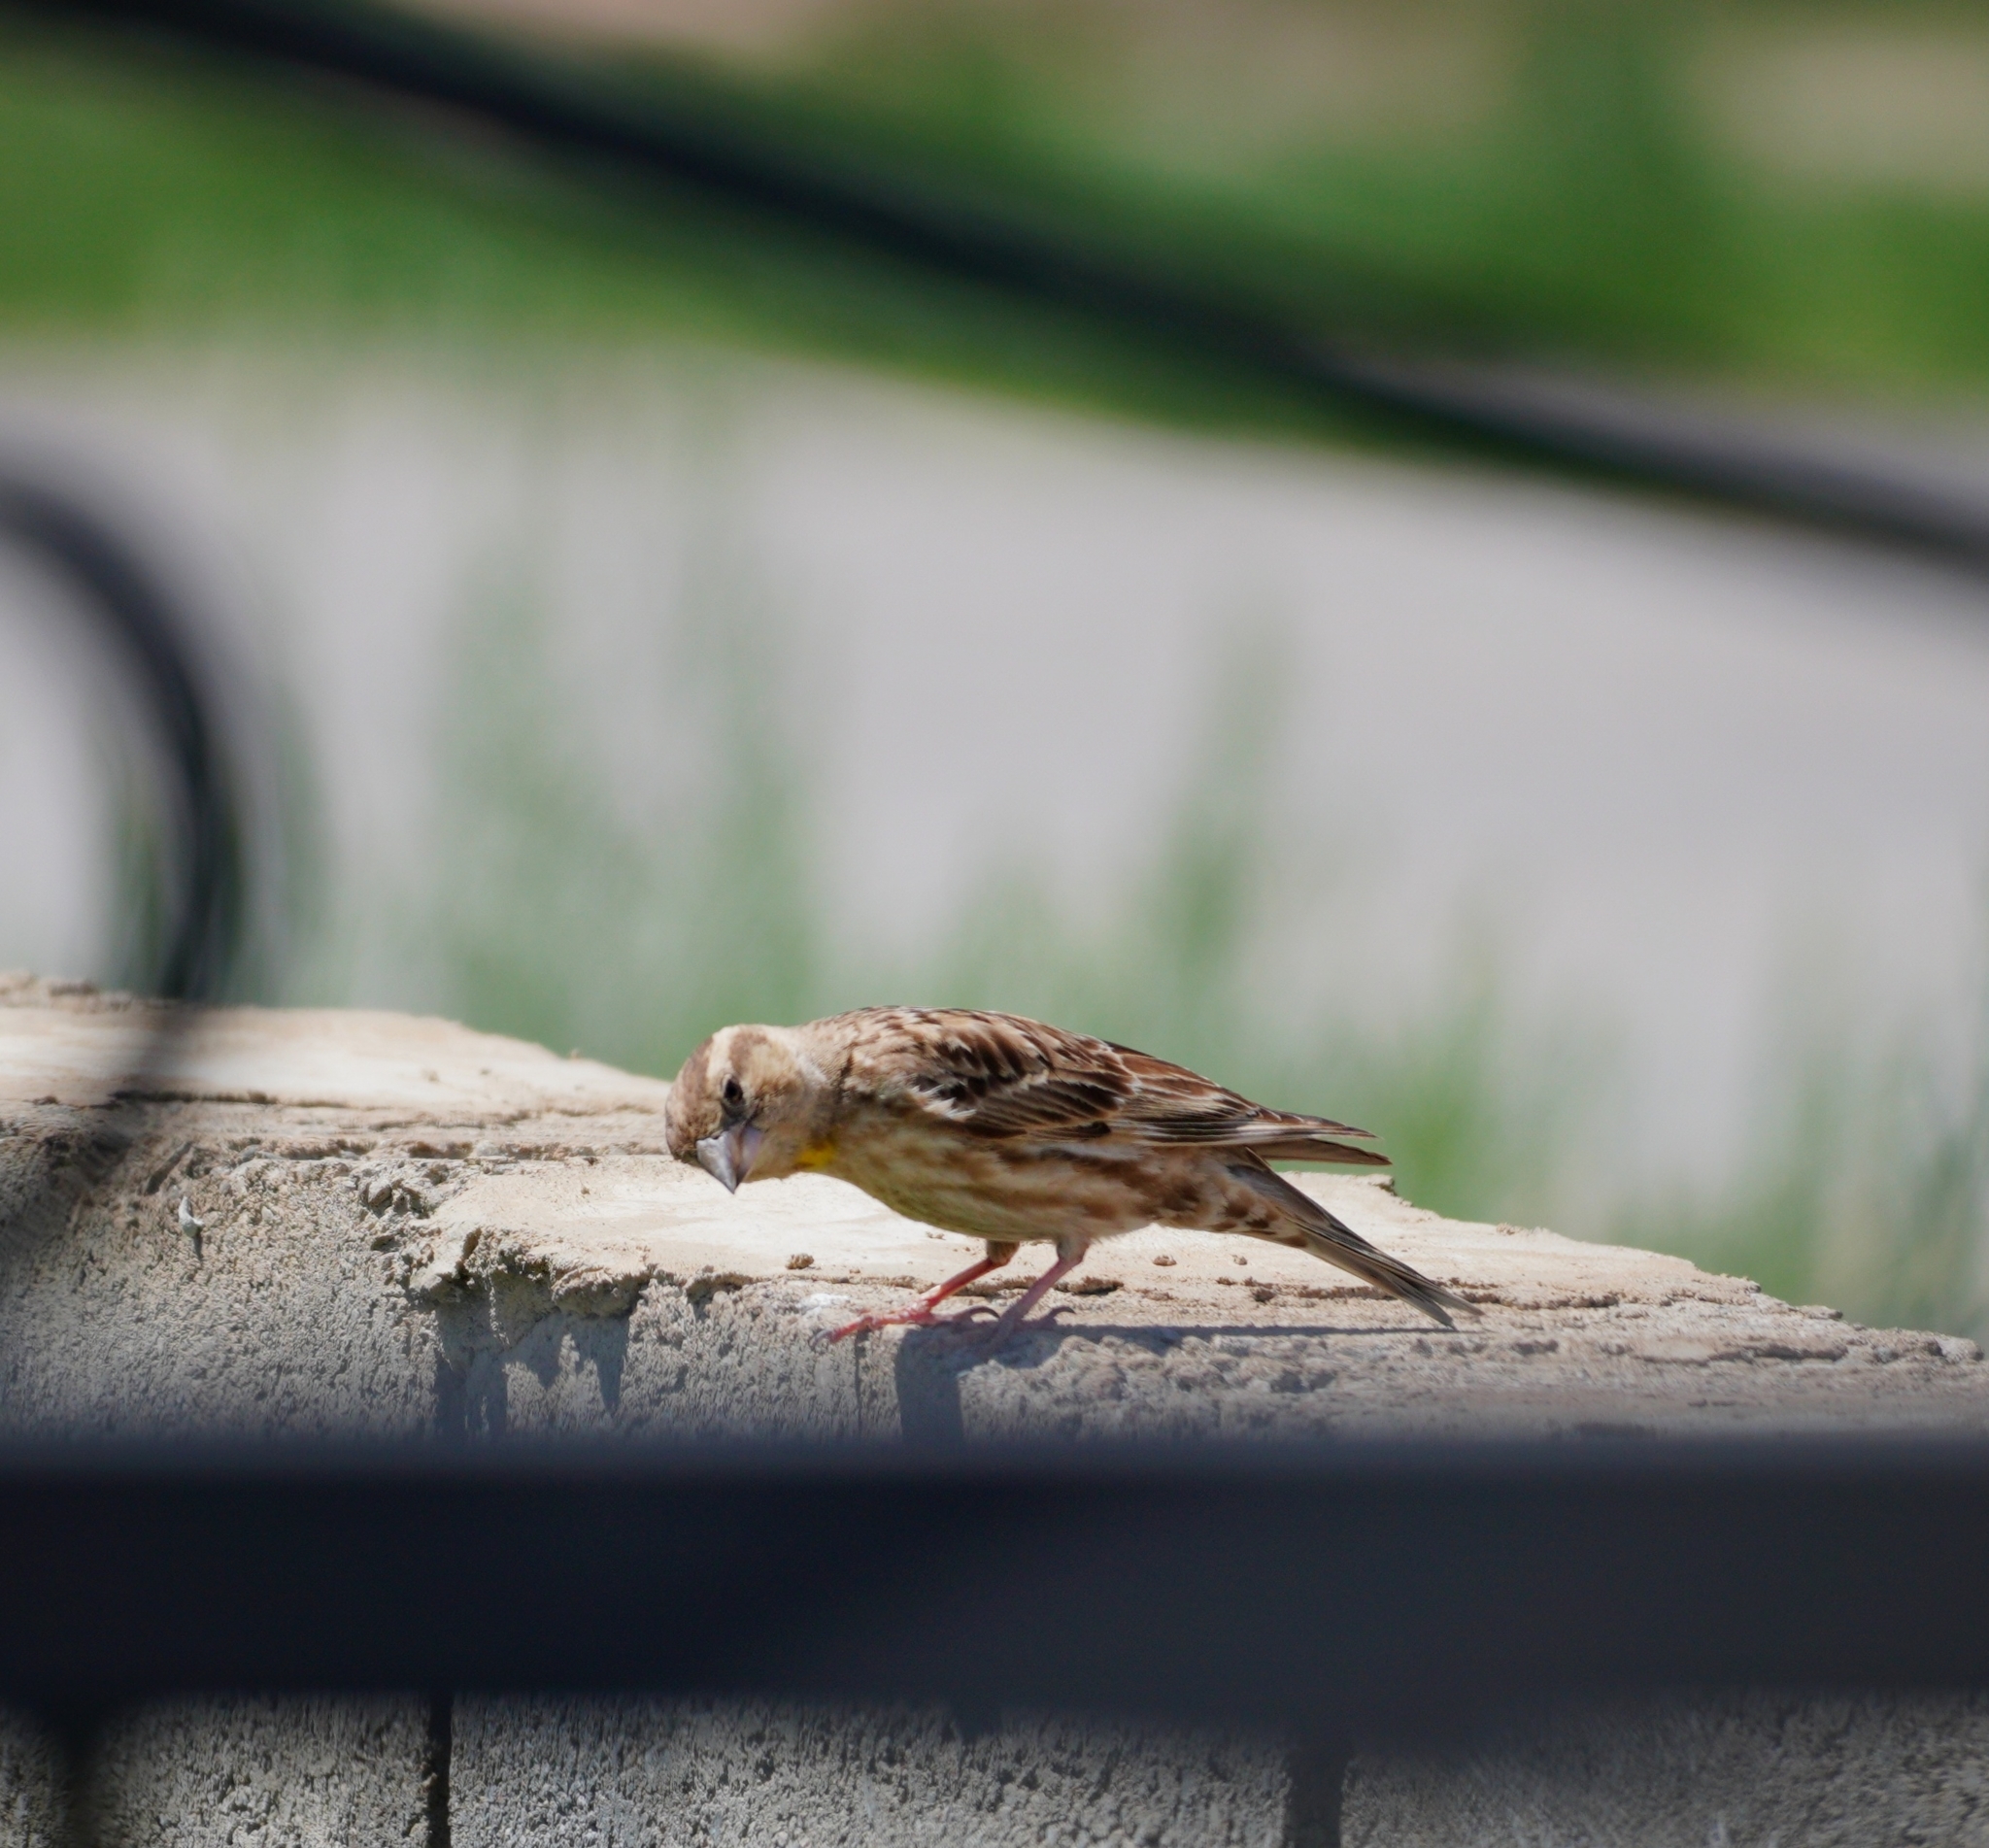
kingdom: Animalia
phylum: Chordata
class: Aves
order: Passeriformes
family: Passeridae
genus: Petronia
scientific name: Petronia petronia
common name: Rock sparrow
